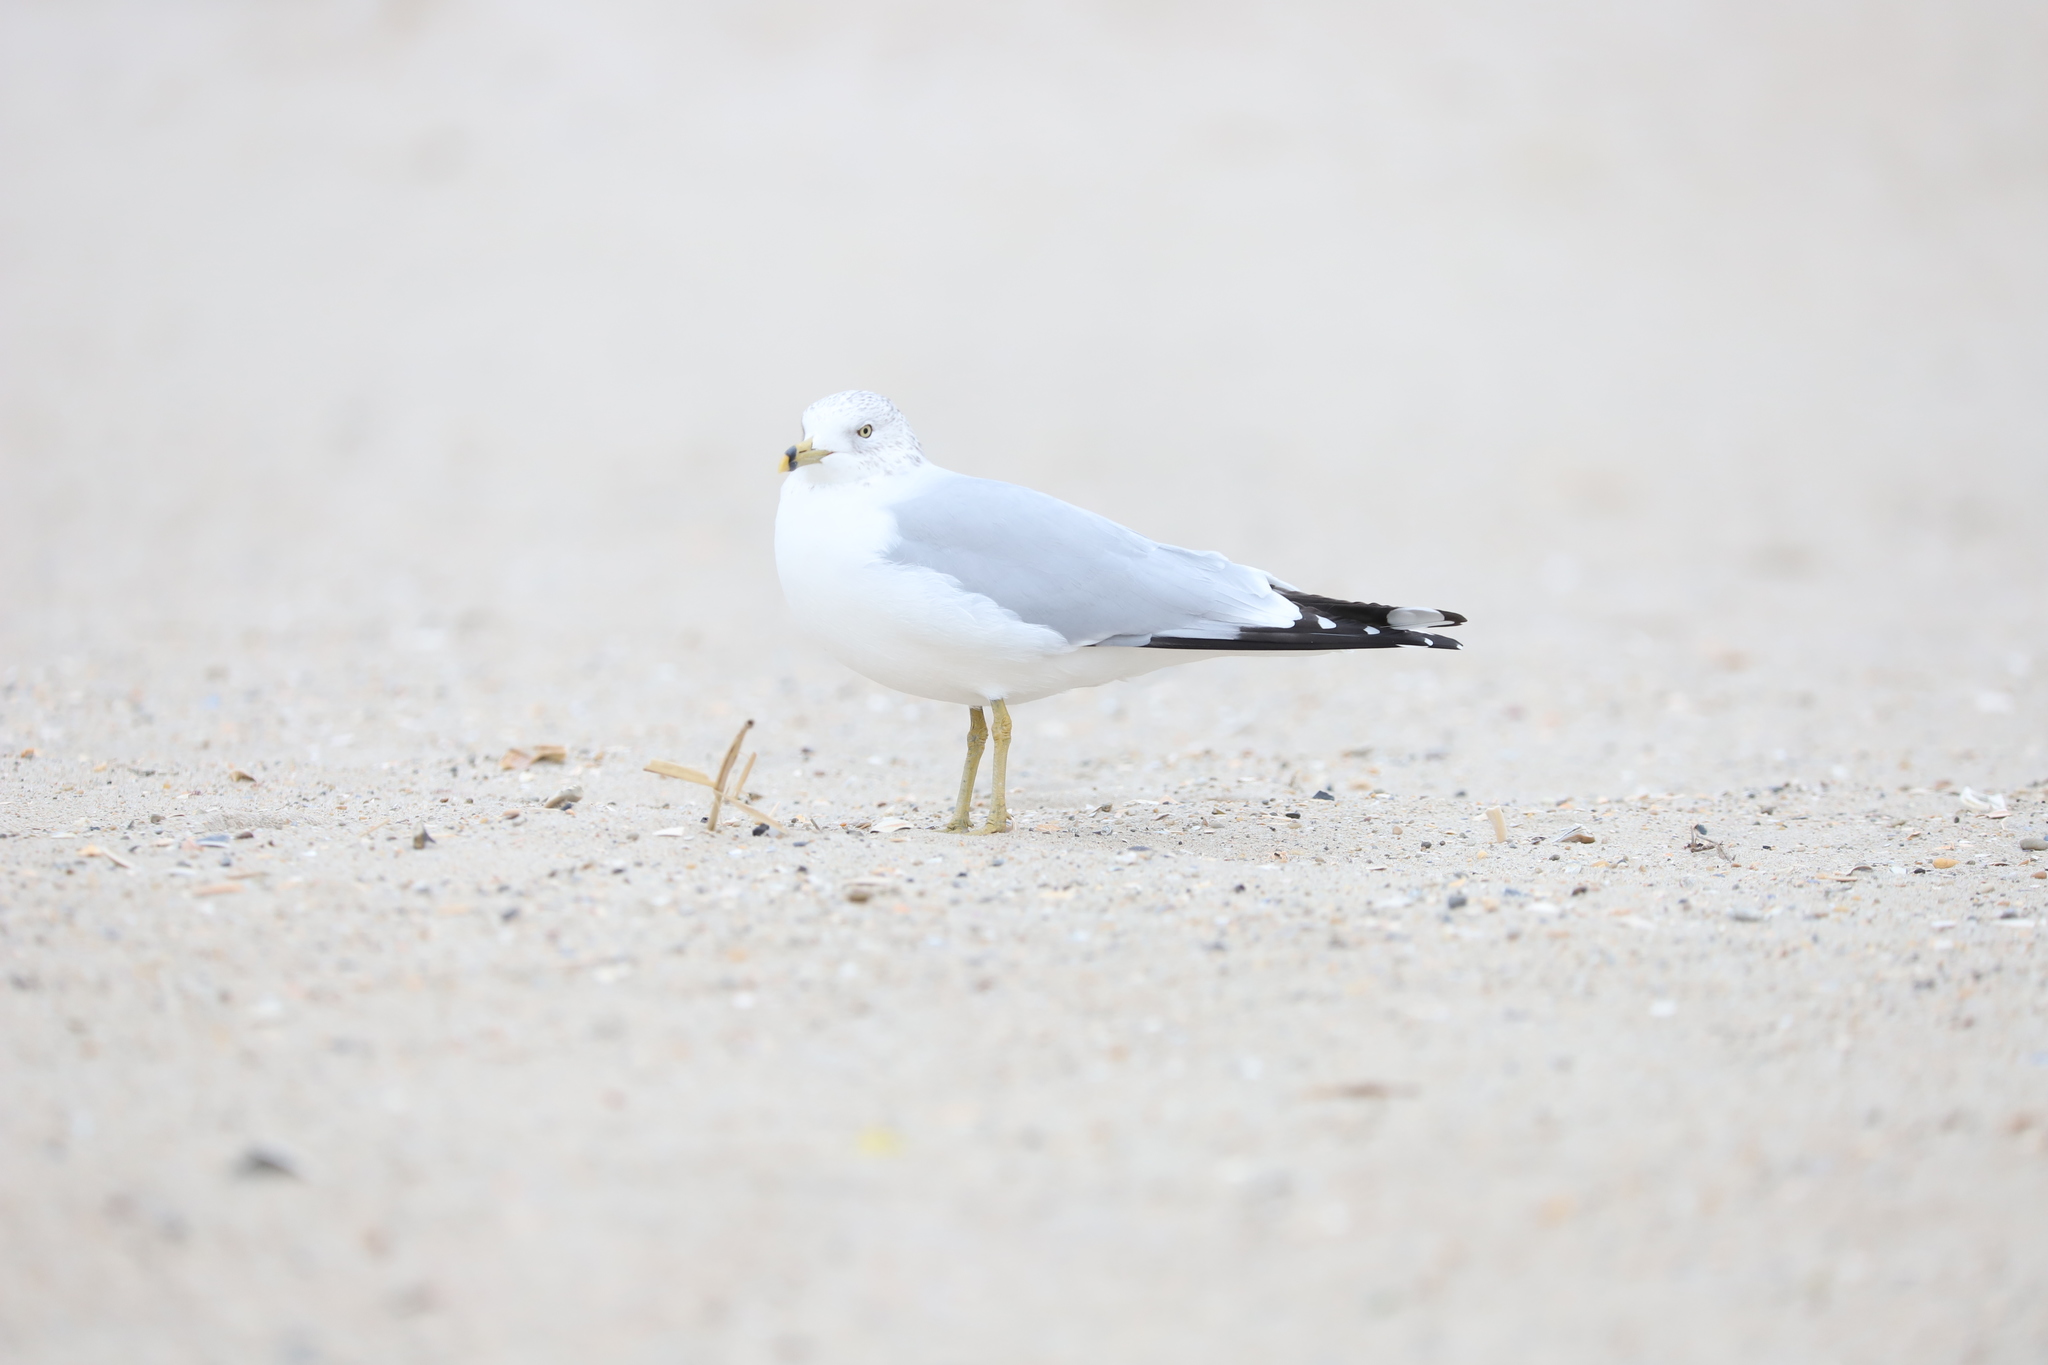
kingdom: Animalia
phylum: Chordata
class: Aves
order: Charadriiformes
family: Laridae
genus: Larus
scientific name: Larus delawarensis
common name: Ring-billed gull
